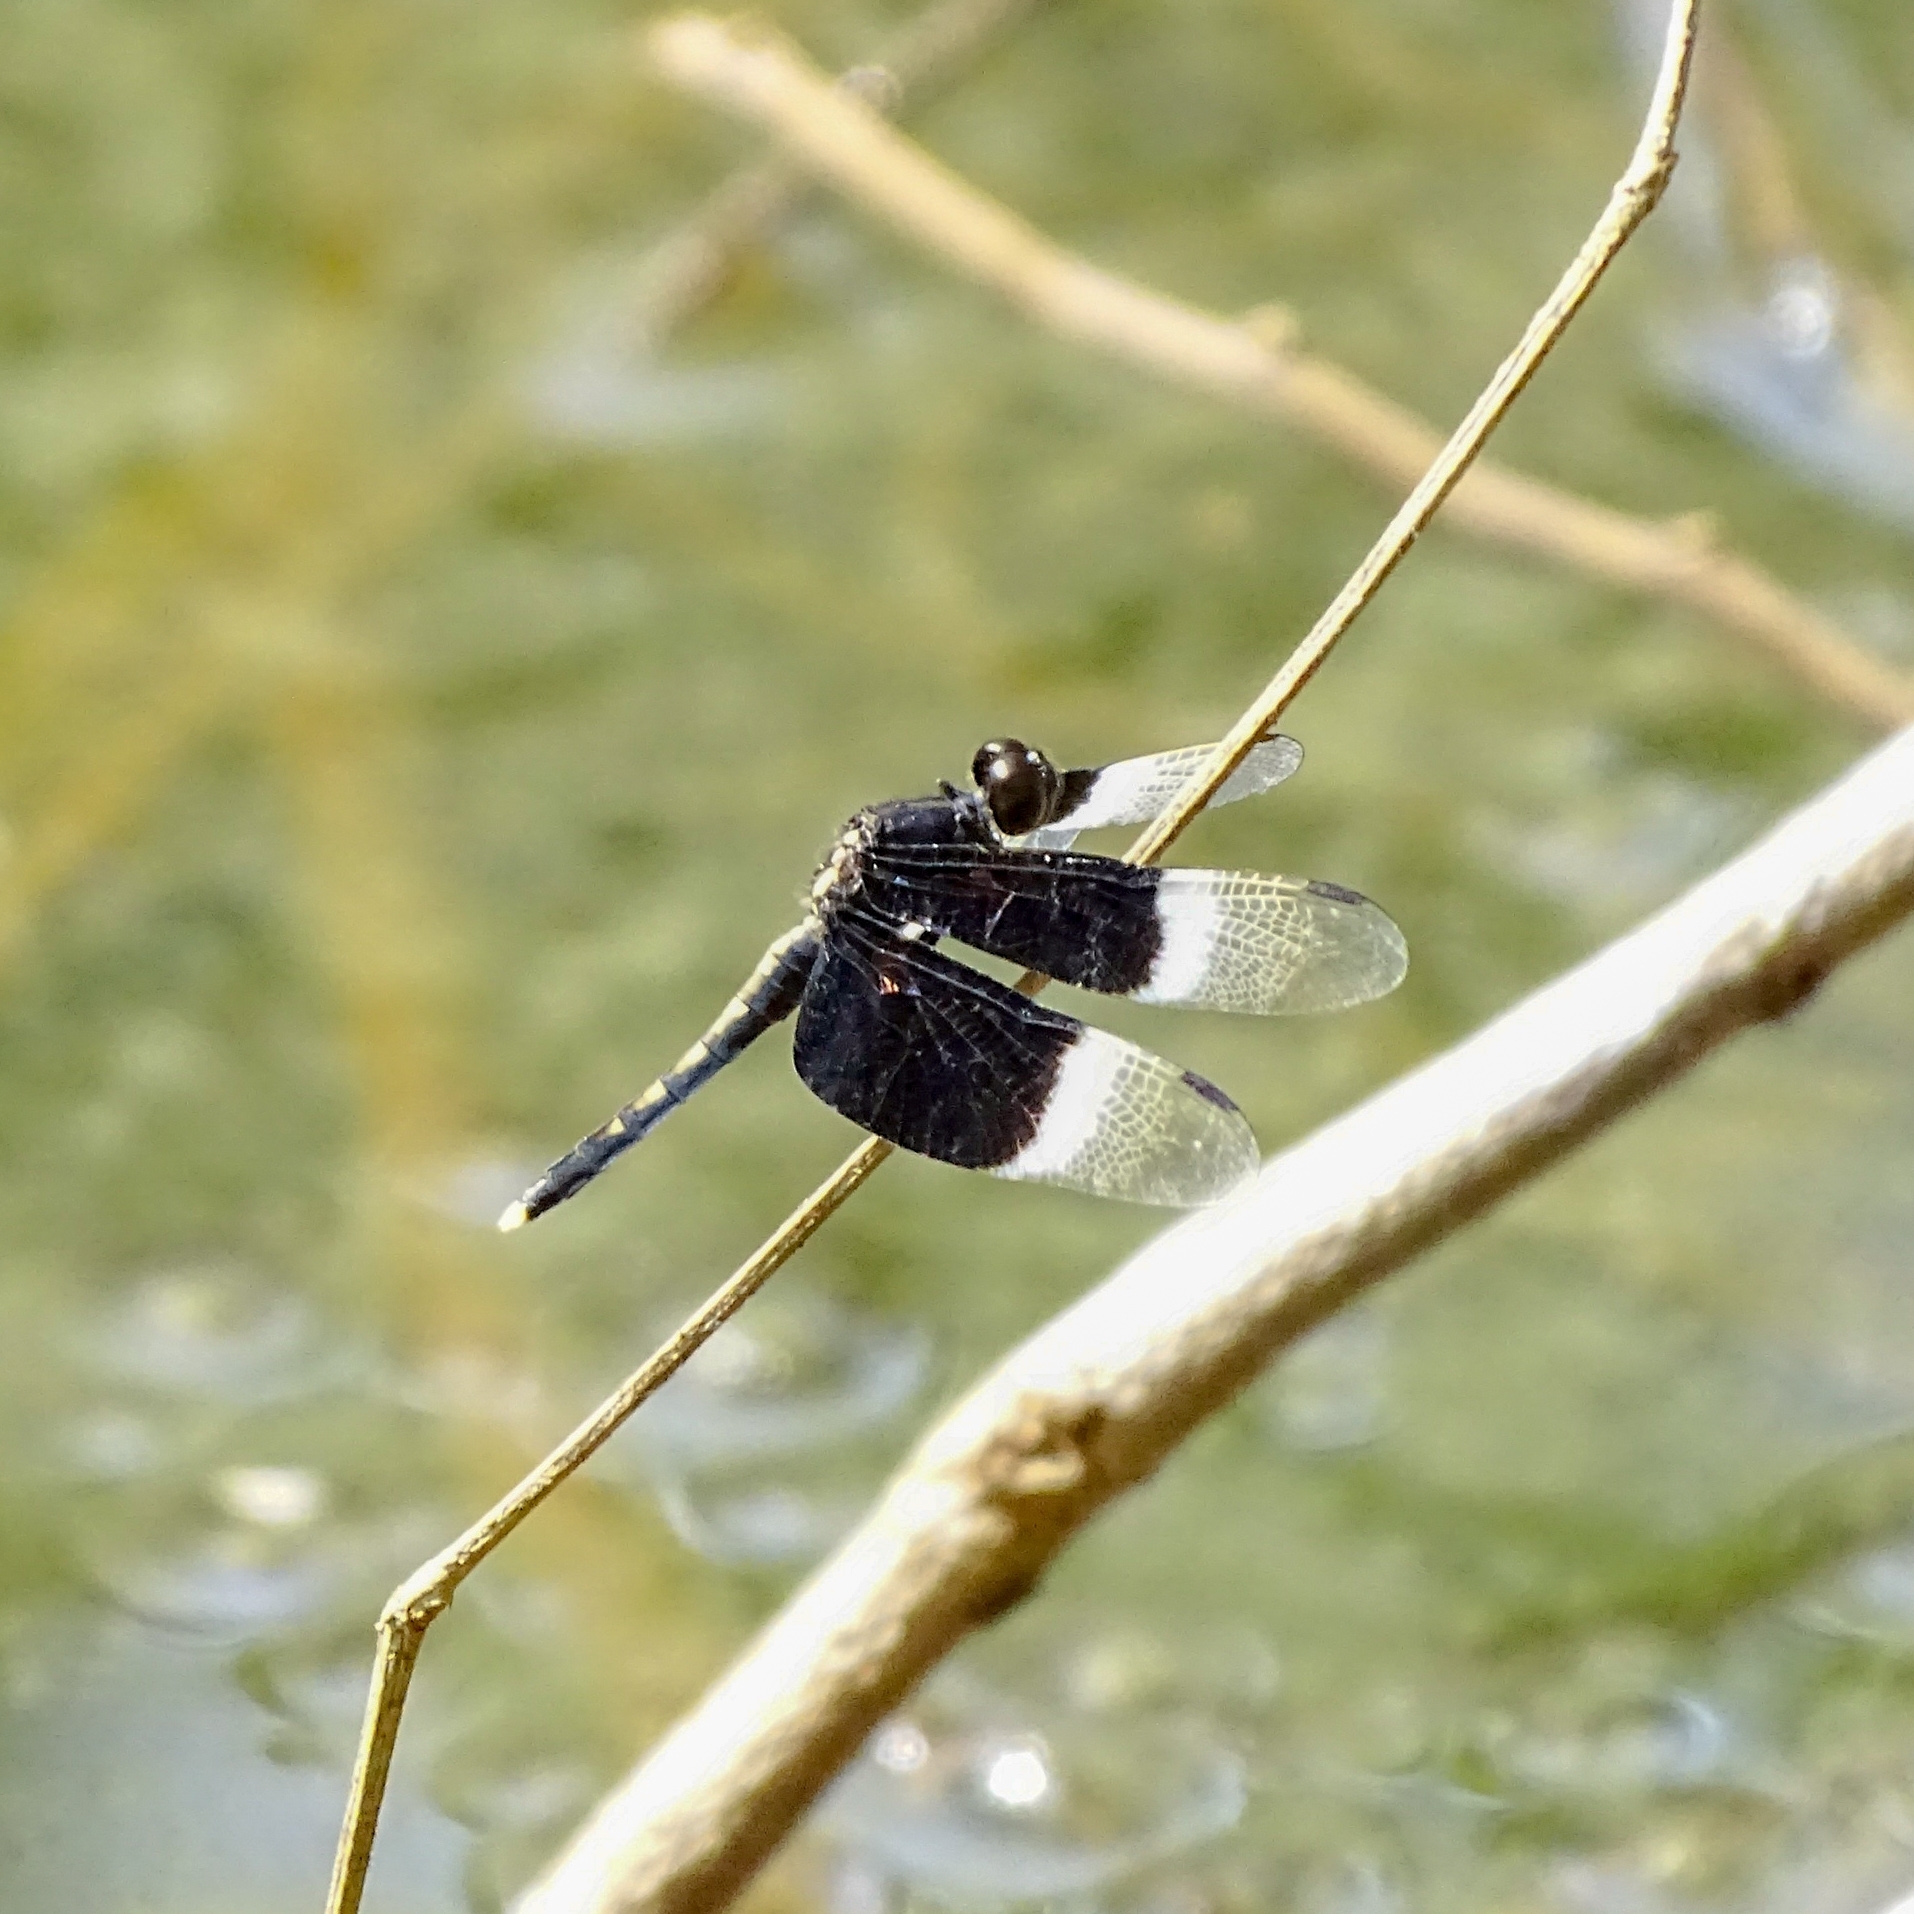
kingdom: Animalia
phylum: Arthropoda
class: Insecta
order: Odonata
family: Libellulidae
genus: Neurothemis
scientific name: Neurothemis tullia
